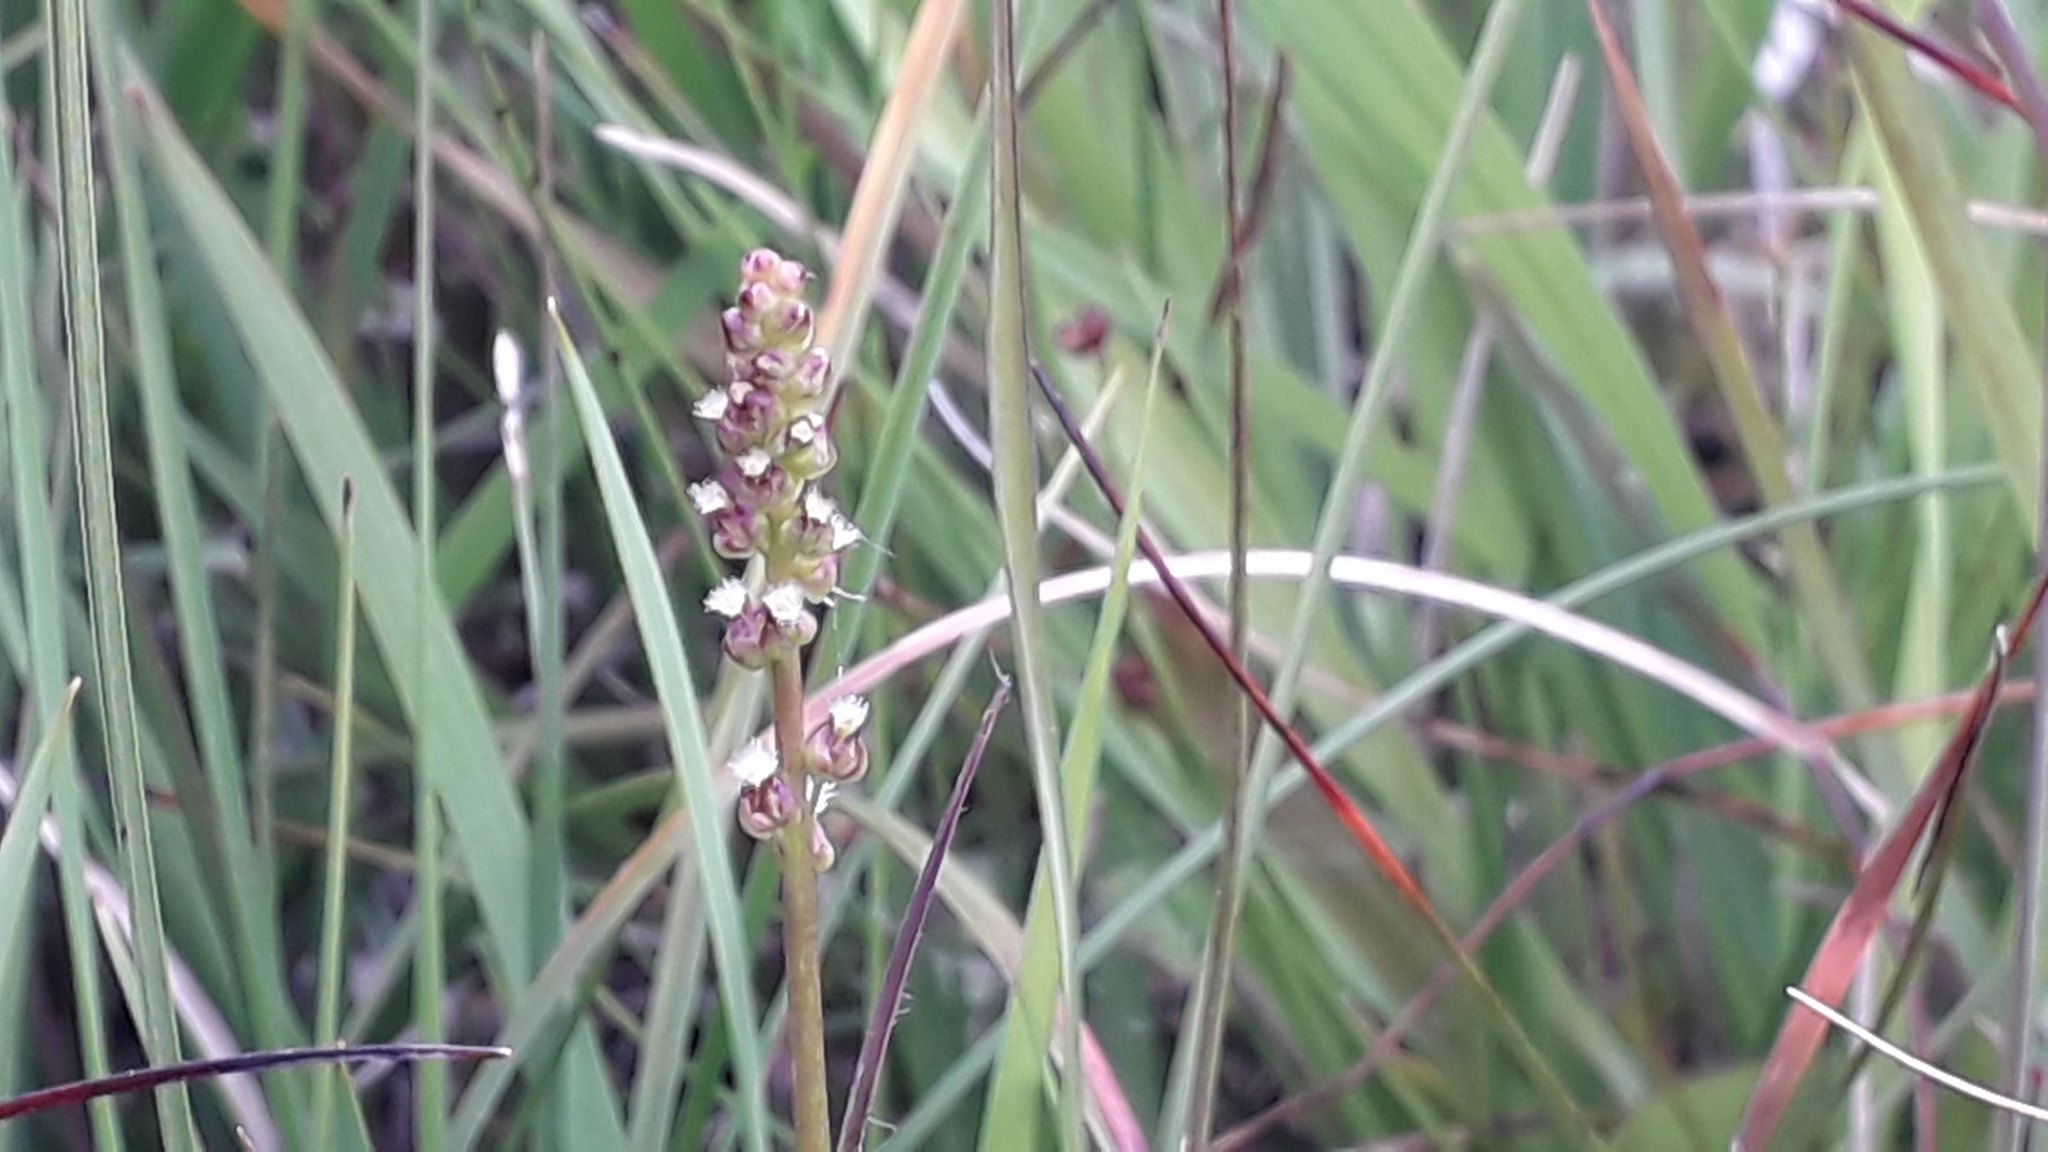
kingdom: Plantae
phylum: Tracheophyta
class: Liliopsida
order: Alismatales
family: Juncaginaceae
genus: Triglochin
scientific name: Triglochin maritima
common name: Sea arrowgrass
